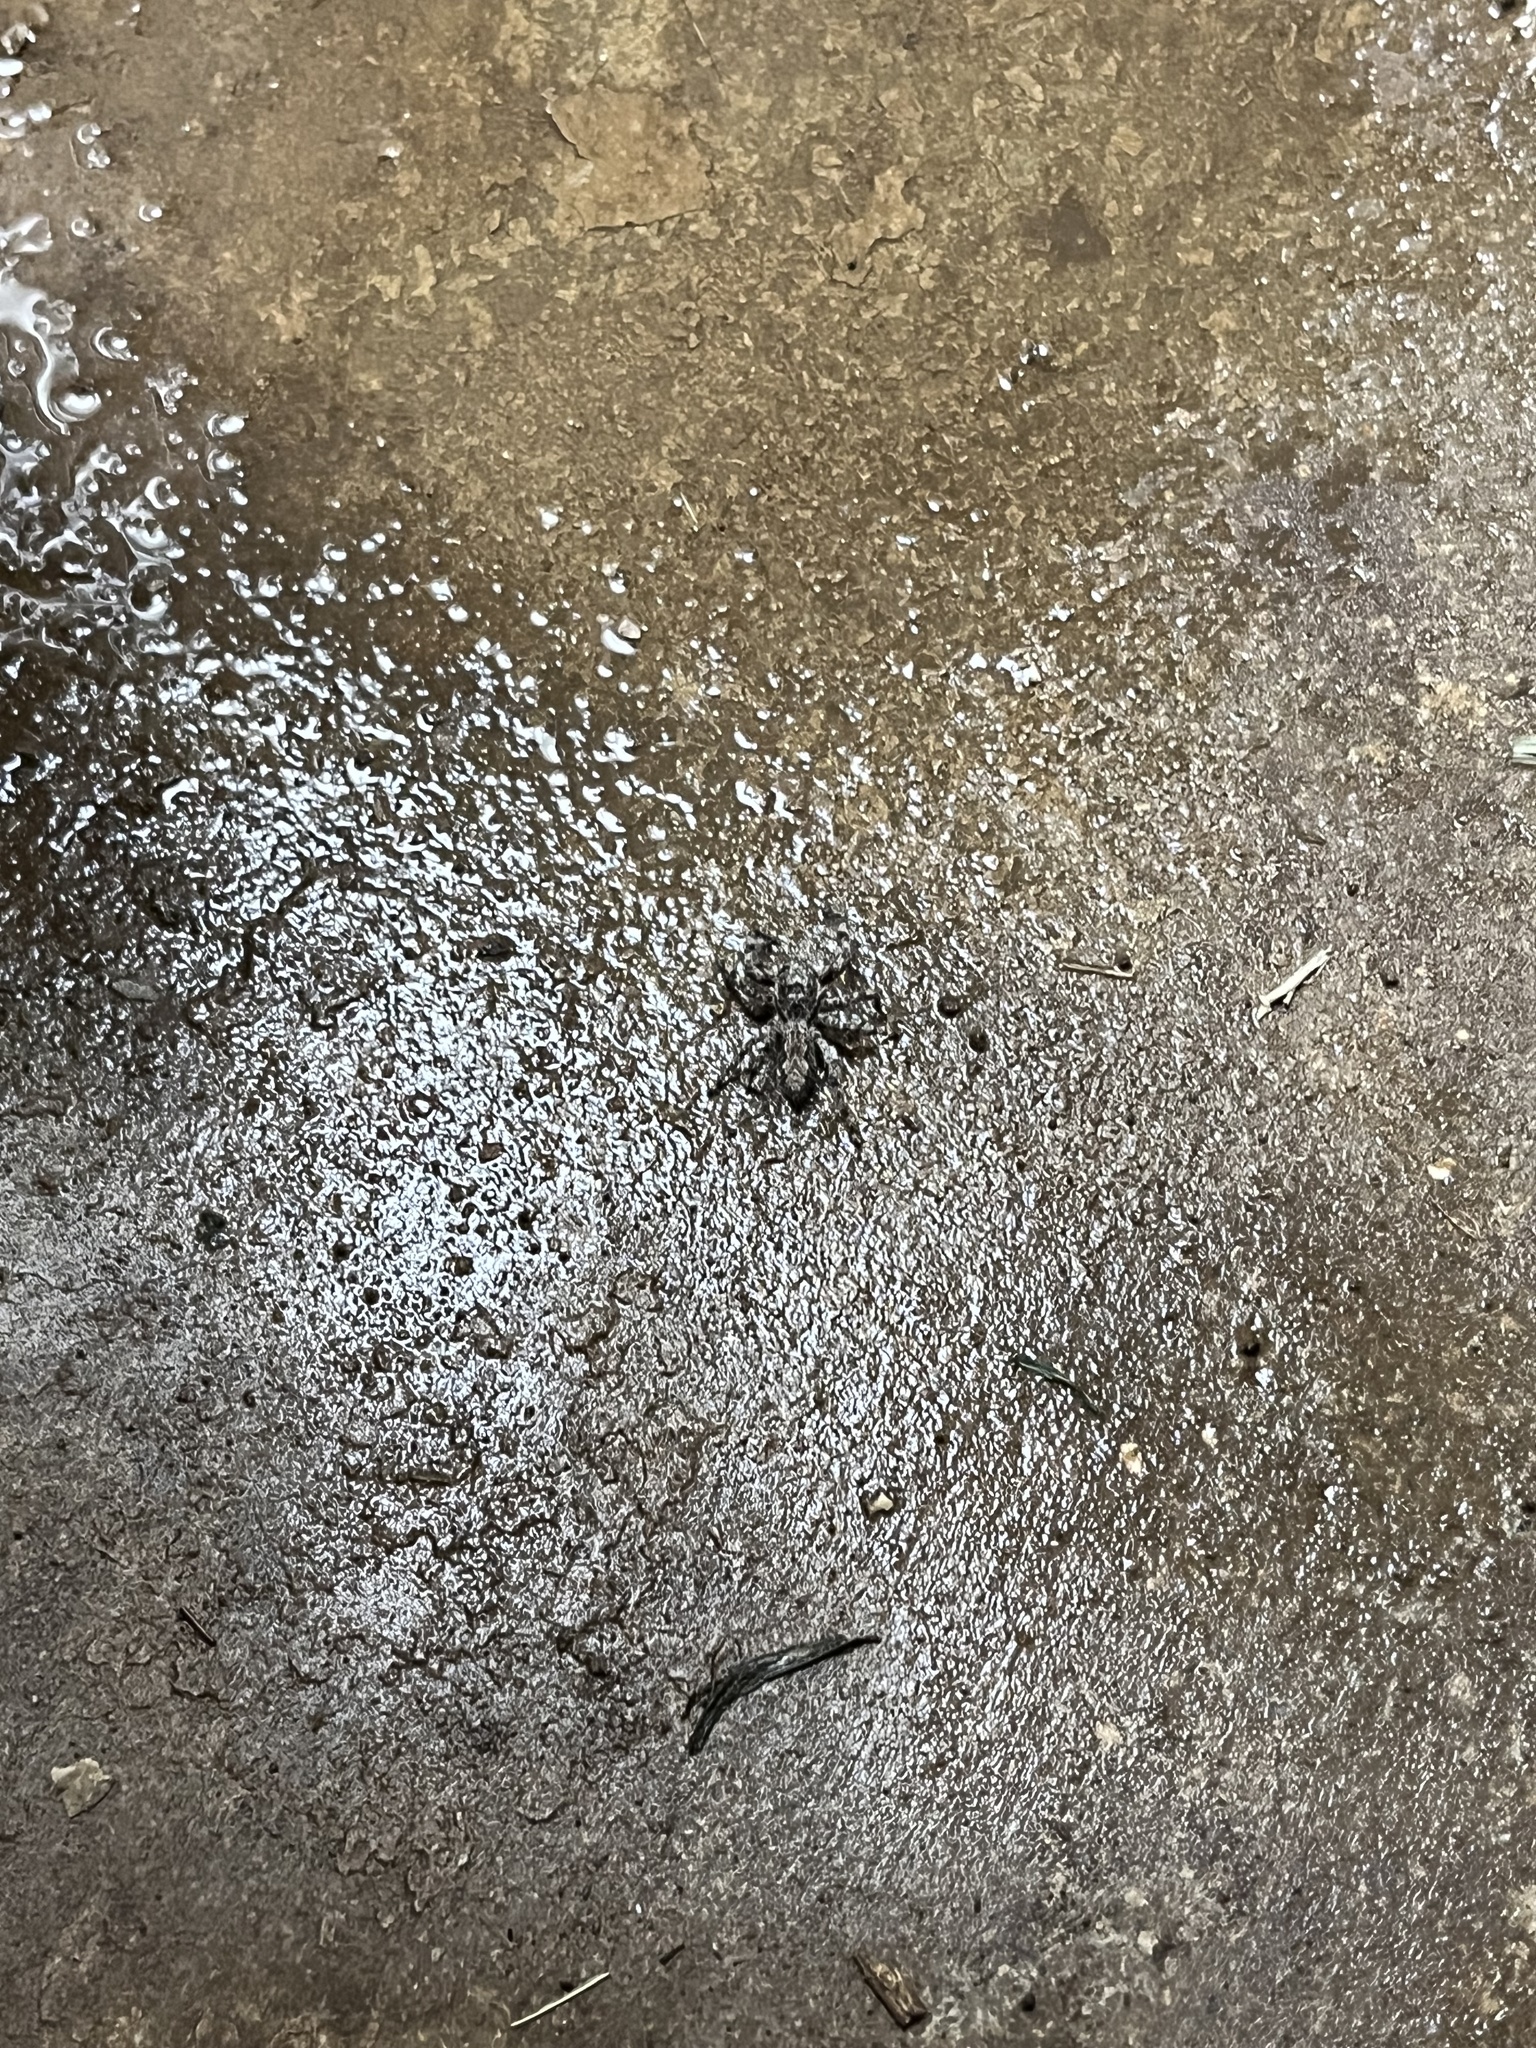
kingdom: Animalia
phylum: Arthropoda
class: Arachnida
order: Araneae
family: Salticidae
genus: Platycryptus
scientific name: Platycryptus undatus
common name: Tan jumping spider
